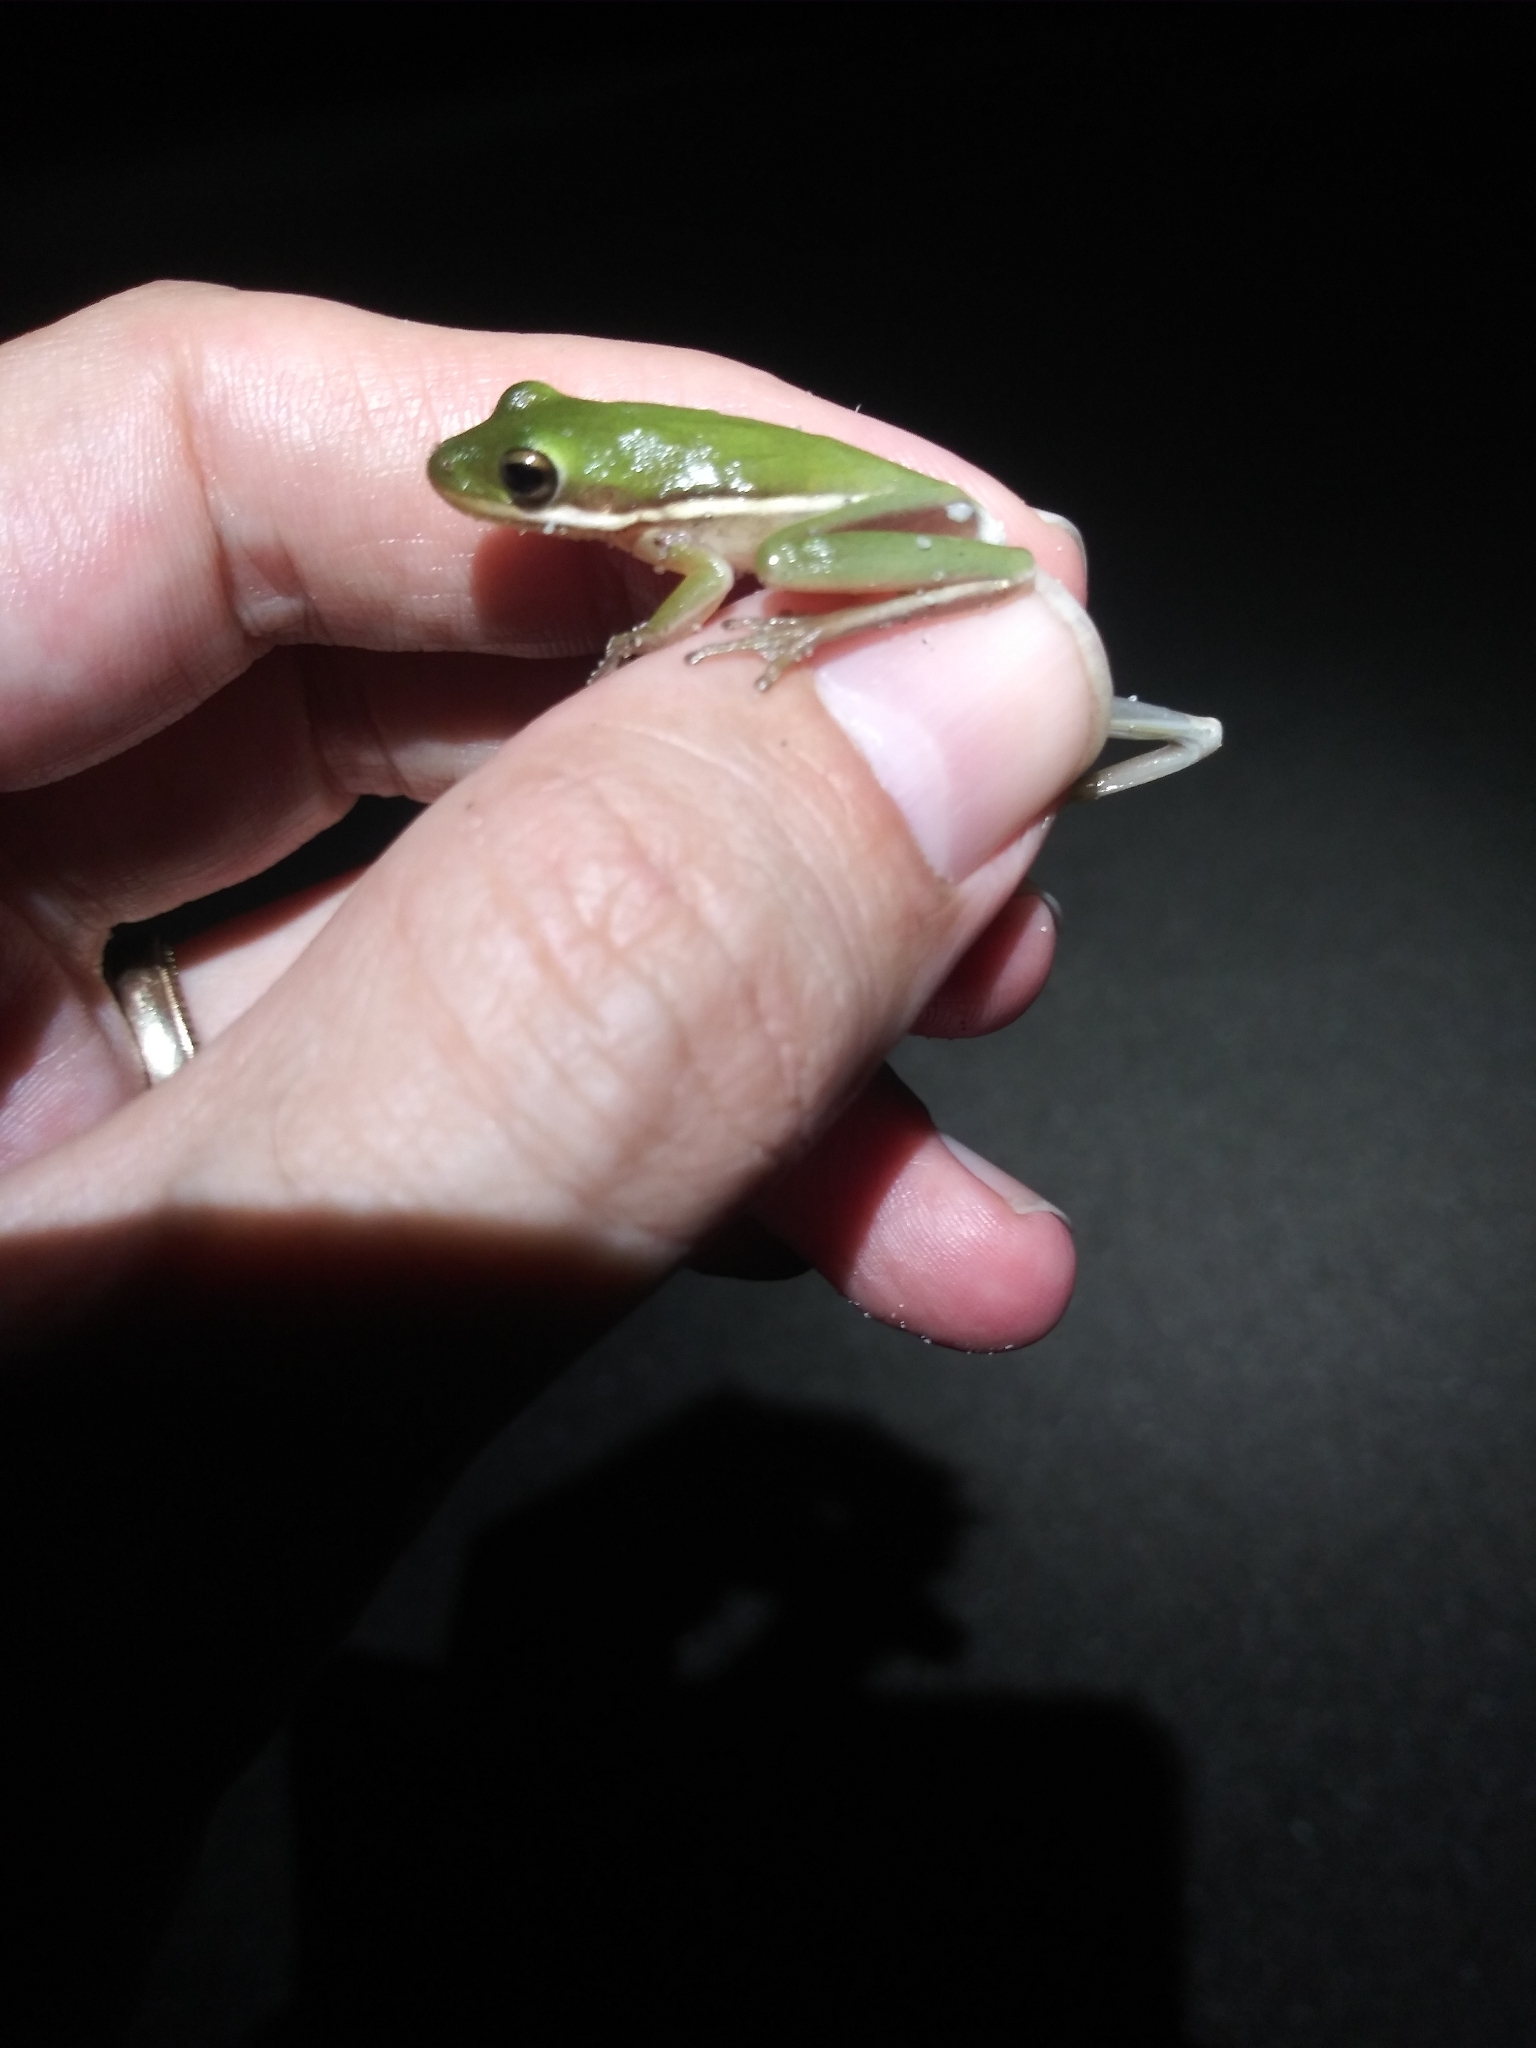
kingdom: Animalia
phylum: Chordata
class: Amphibia
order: Anura
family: Hylidae
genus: Dryophytes
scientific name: Dryophytes cinereus
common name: Green treefrog
